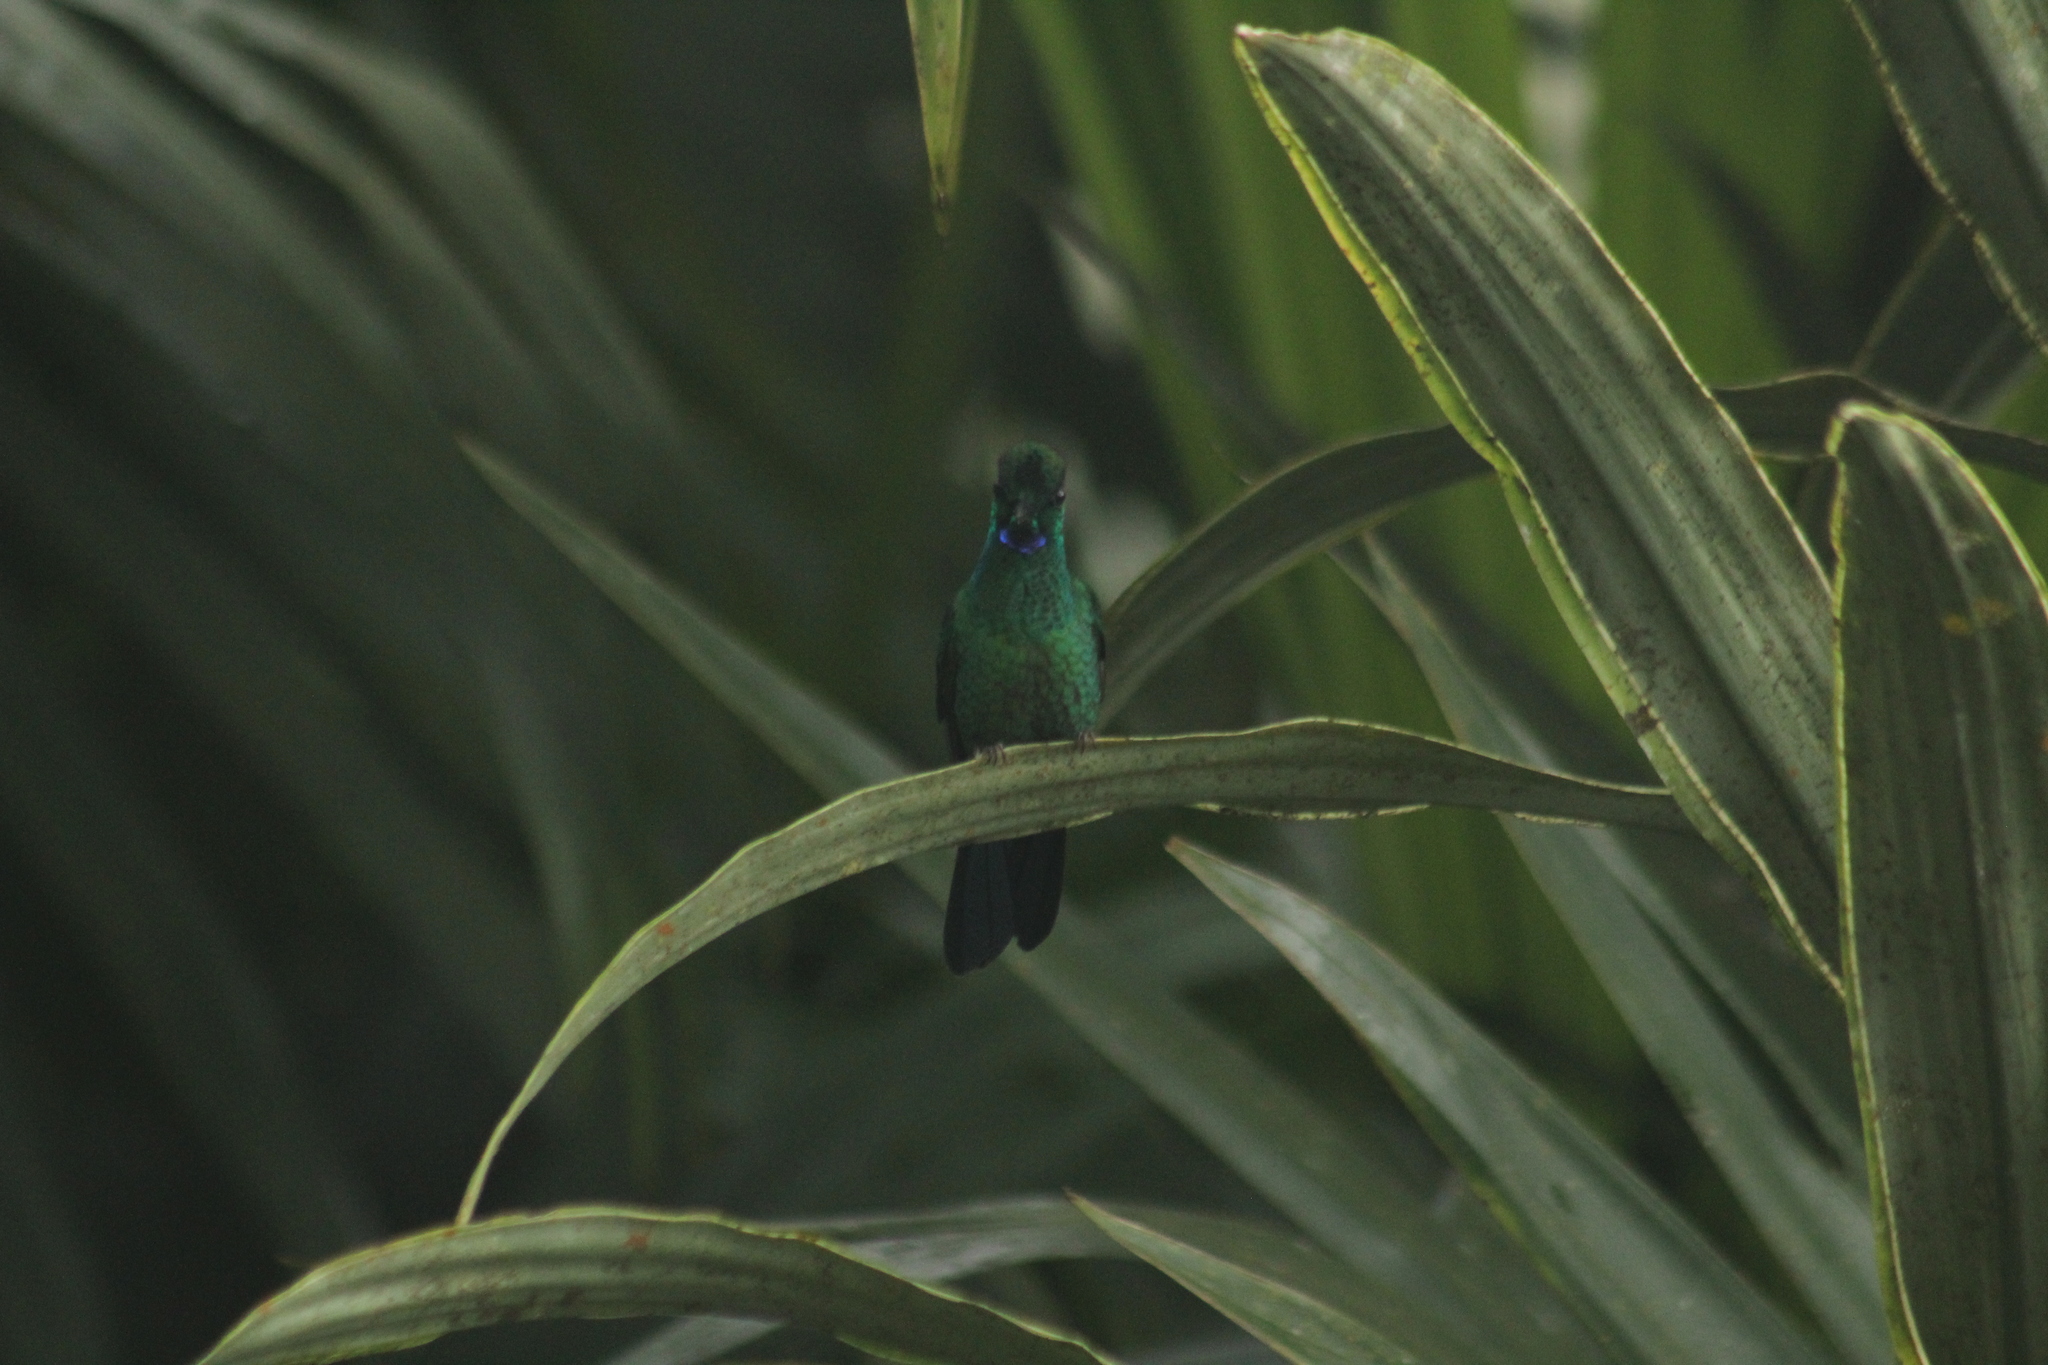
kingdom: Animalia
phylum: Chordata
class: Aves
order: Apodiformes
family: Trochilidae
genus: Heliodoxa
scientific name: Heliodoxa jacula
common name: Green-crowned brilliant
